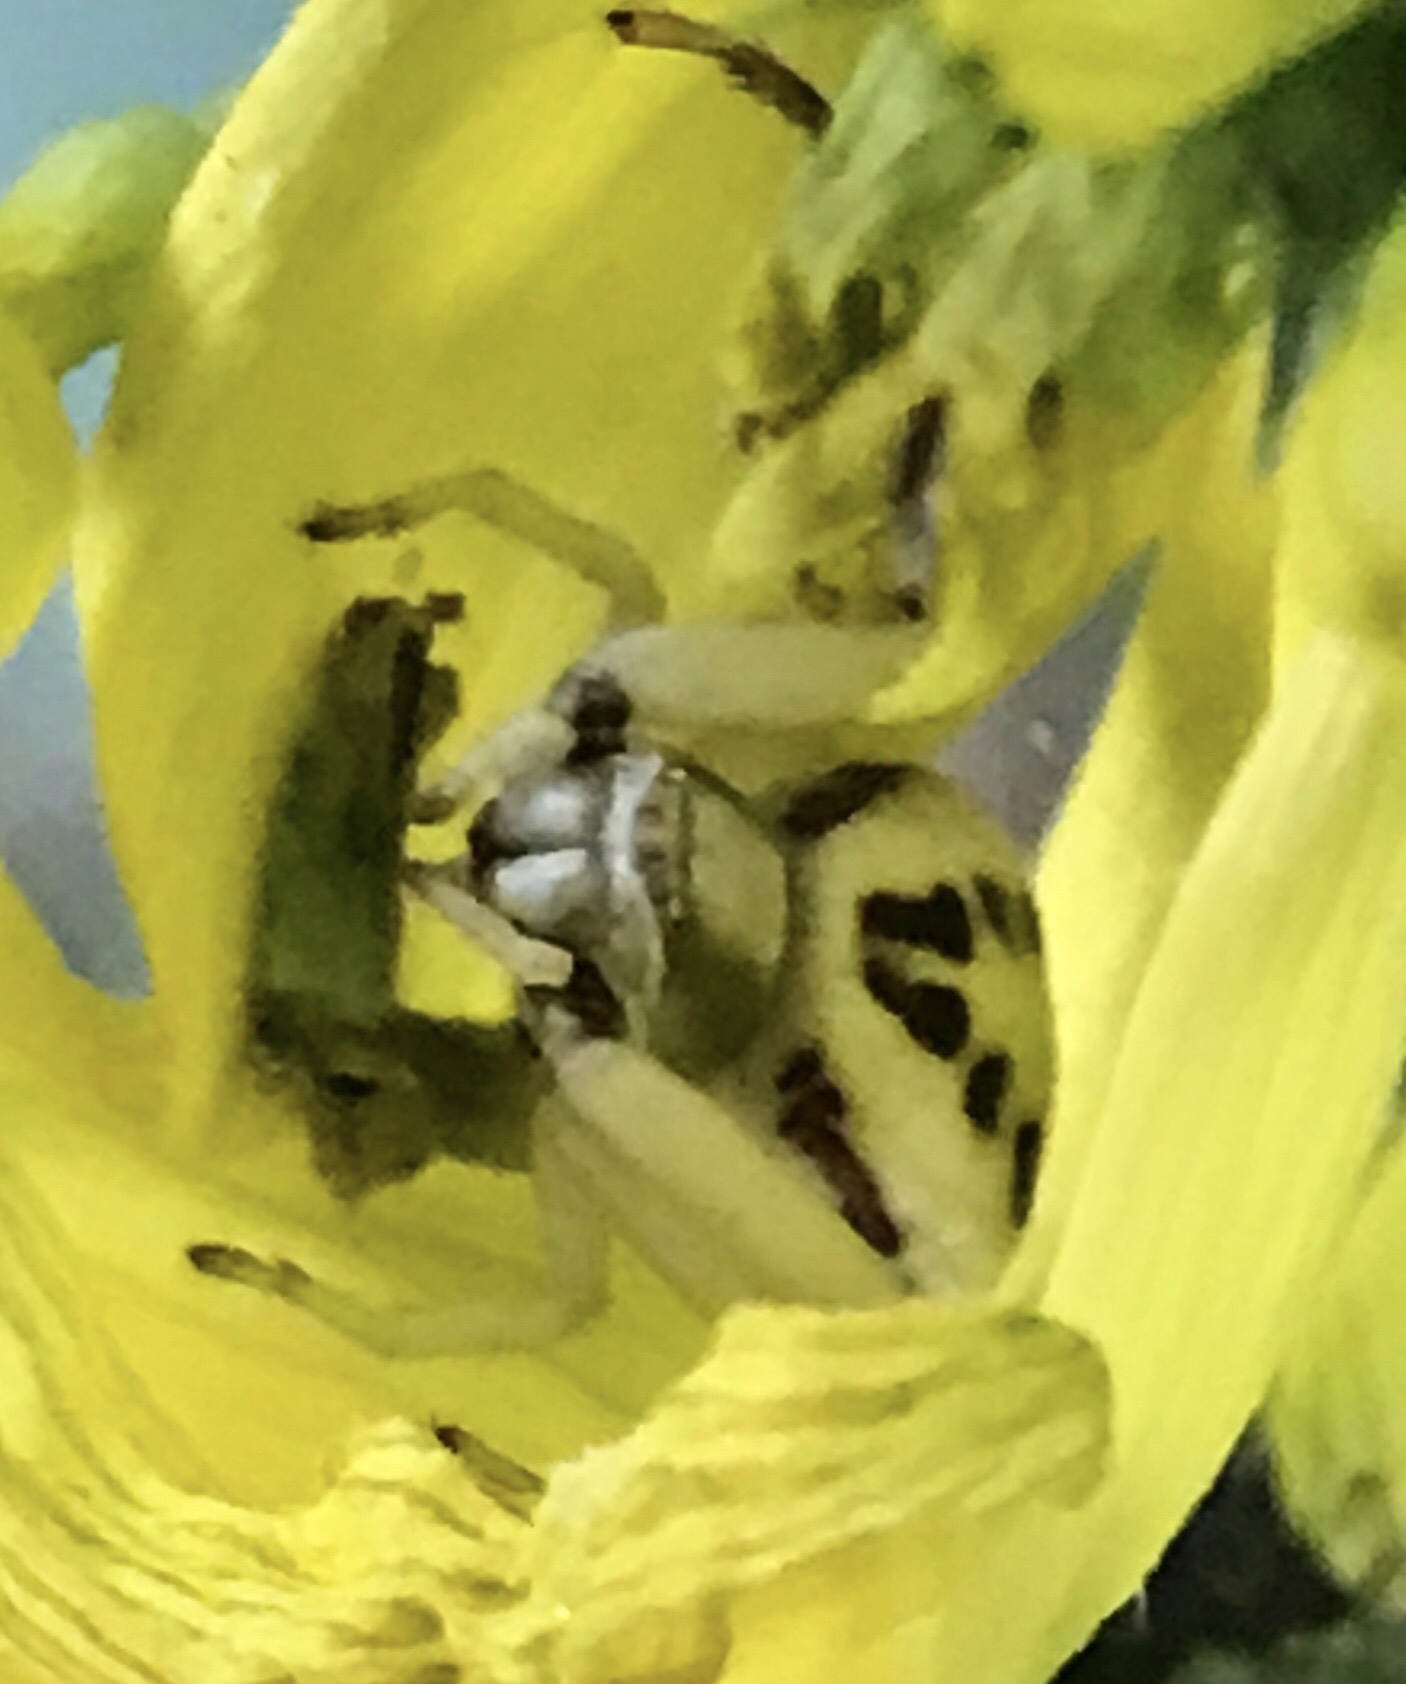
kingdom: Animalia
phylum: Arthropoda
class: Arachnida
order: Araneae
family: Thomisidae
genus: Misumenoides
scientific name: Misumenoides formosipes
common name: White-banded crab spider
